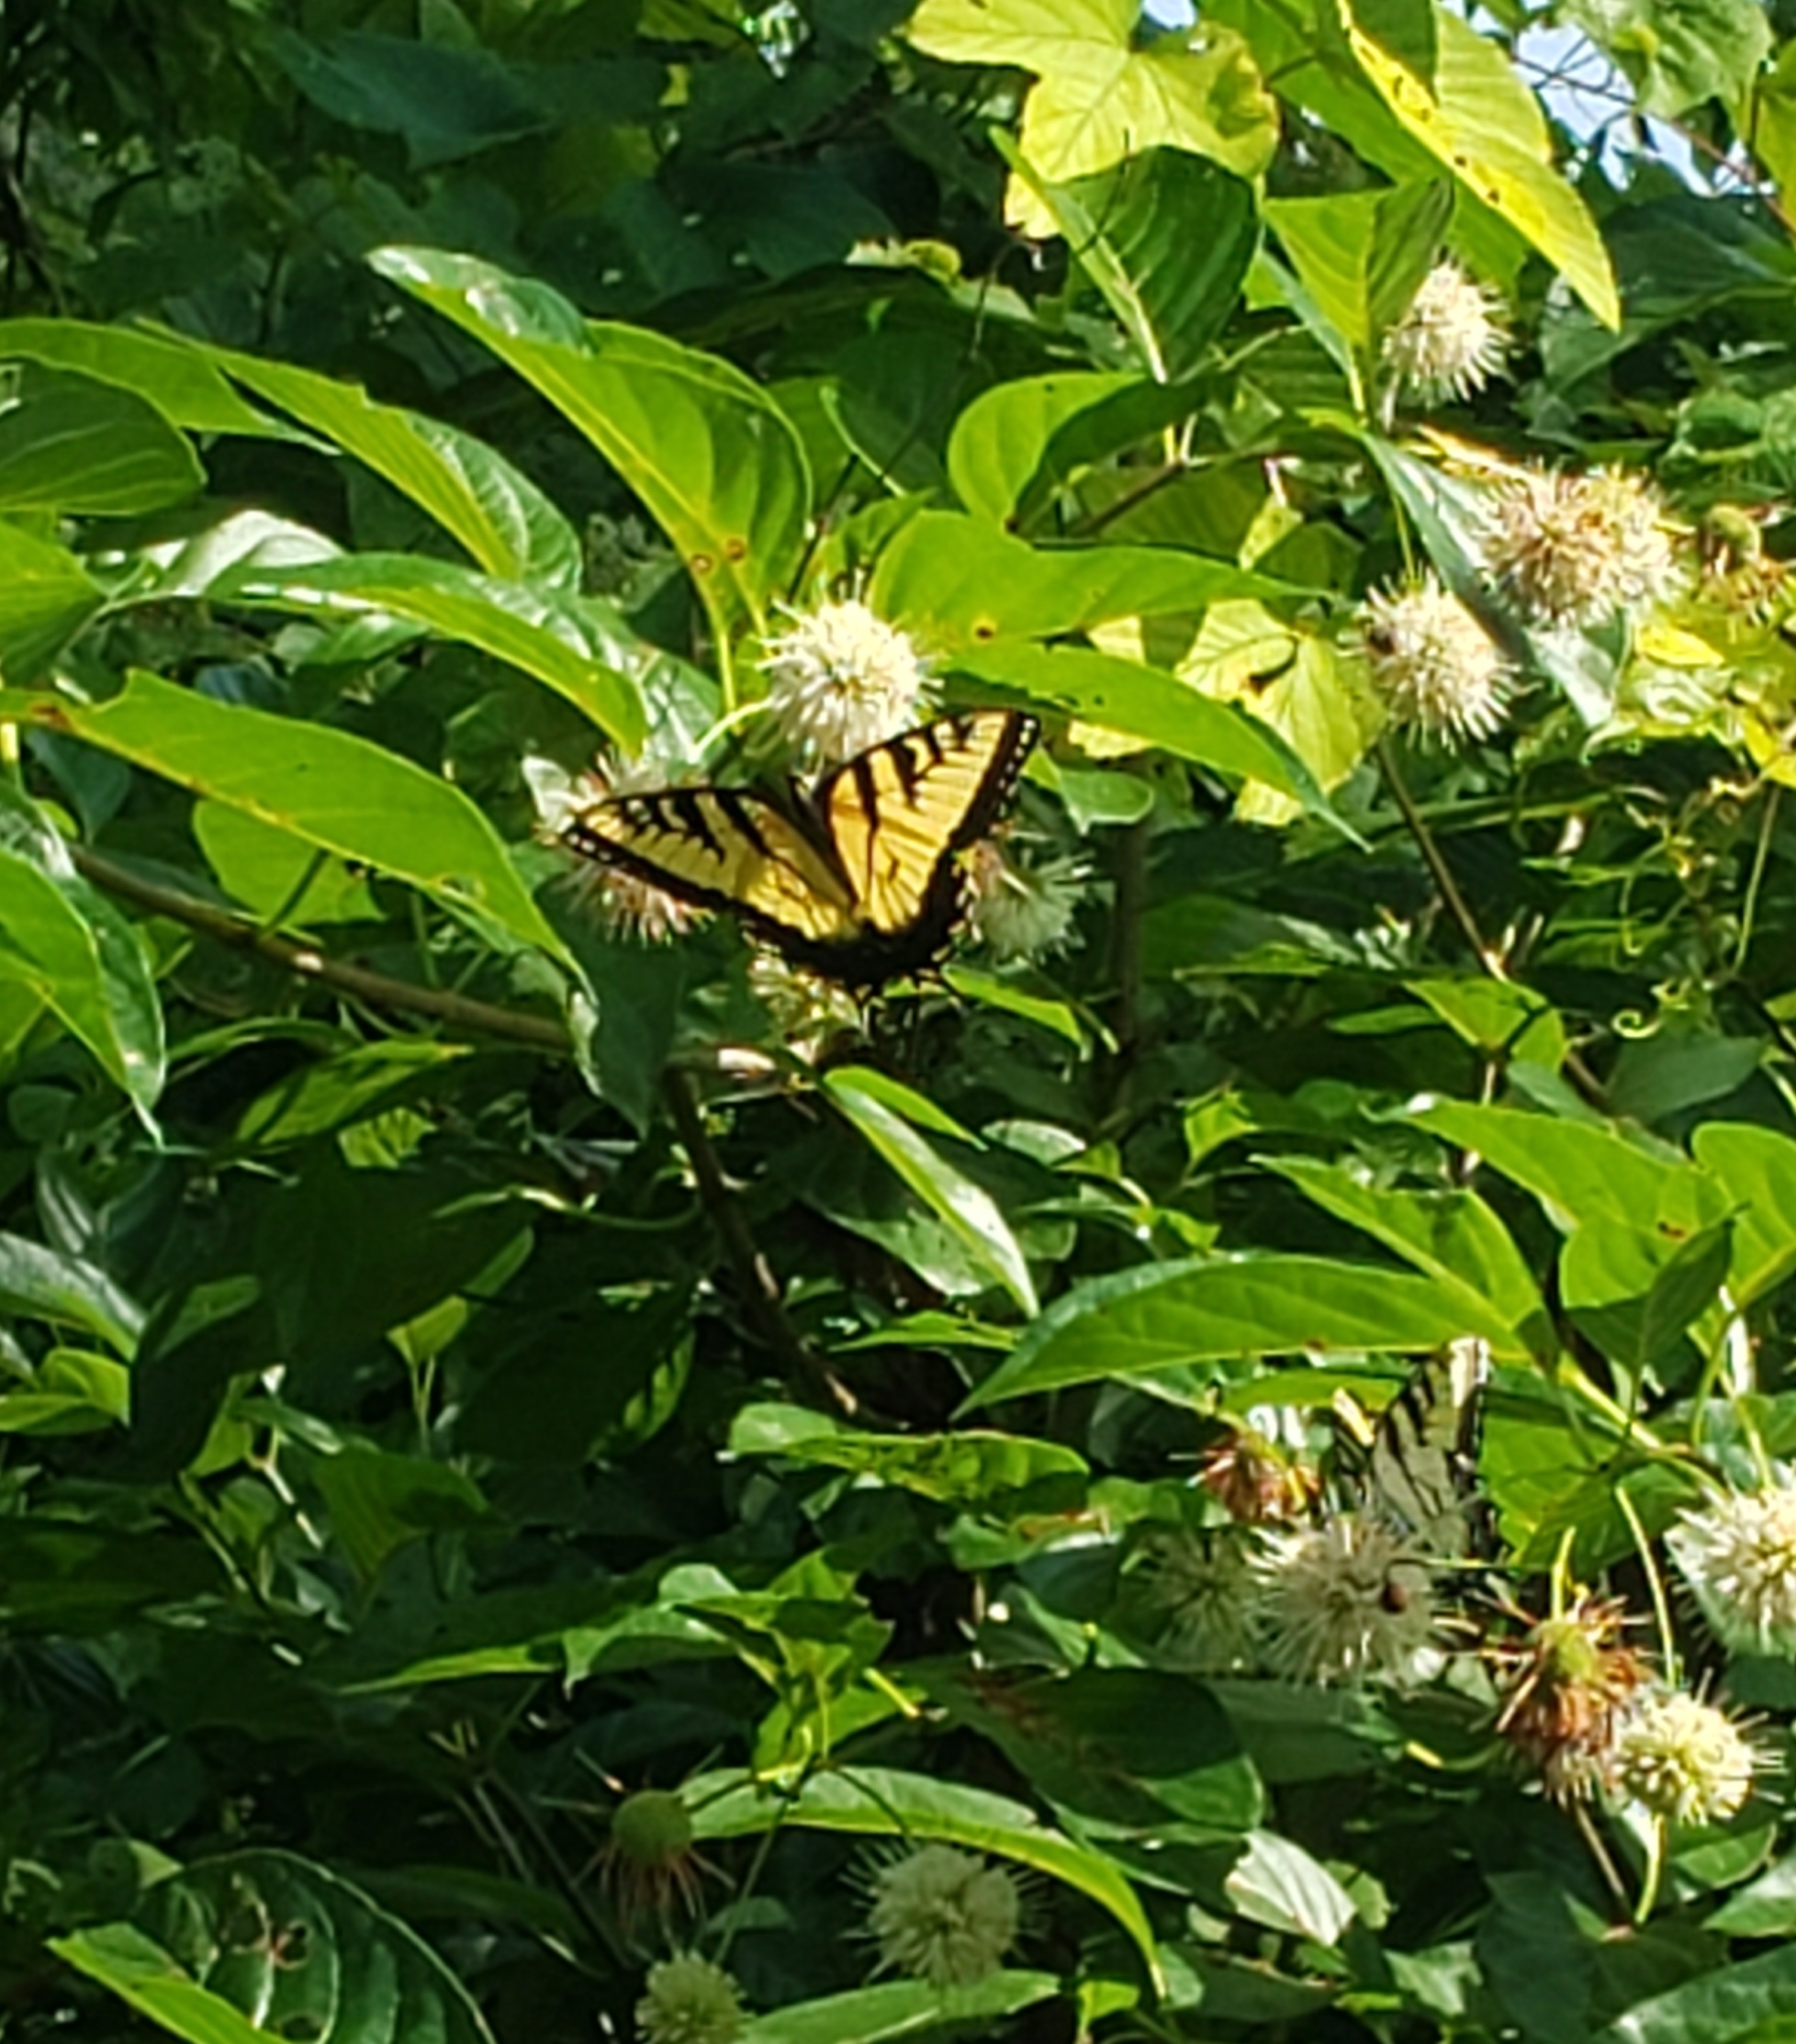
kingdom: Animalia
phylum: Arthropoda
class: Insecta
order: Lepidoptera
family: Papilionidae
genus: Papilio
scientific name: Papilio glaucus
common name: Tiger swallowtail
